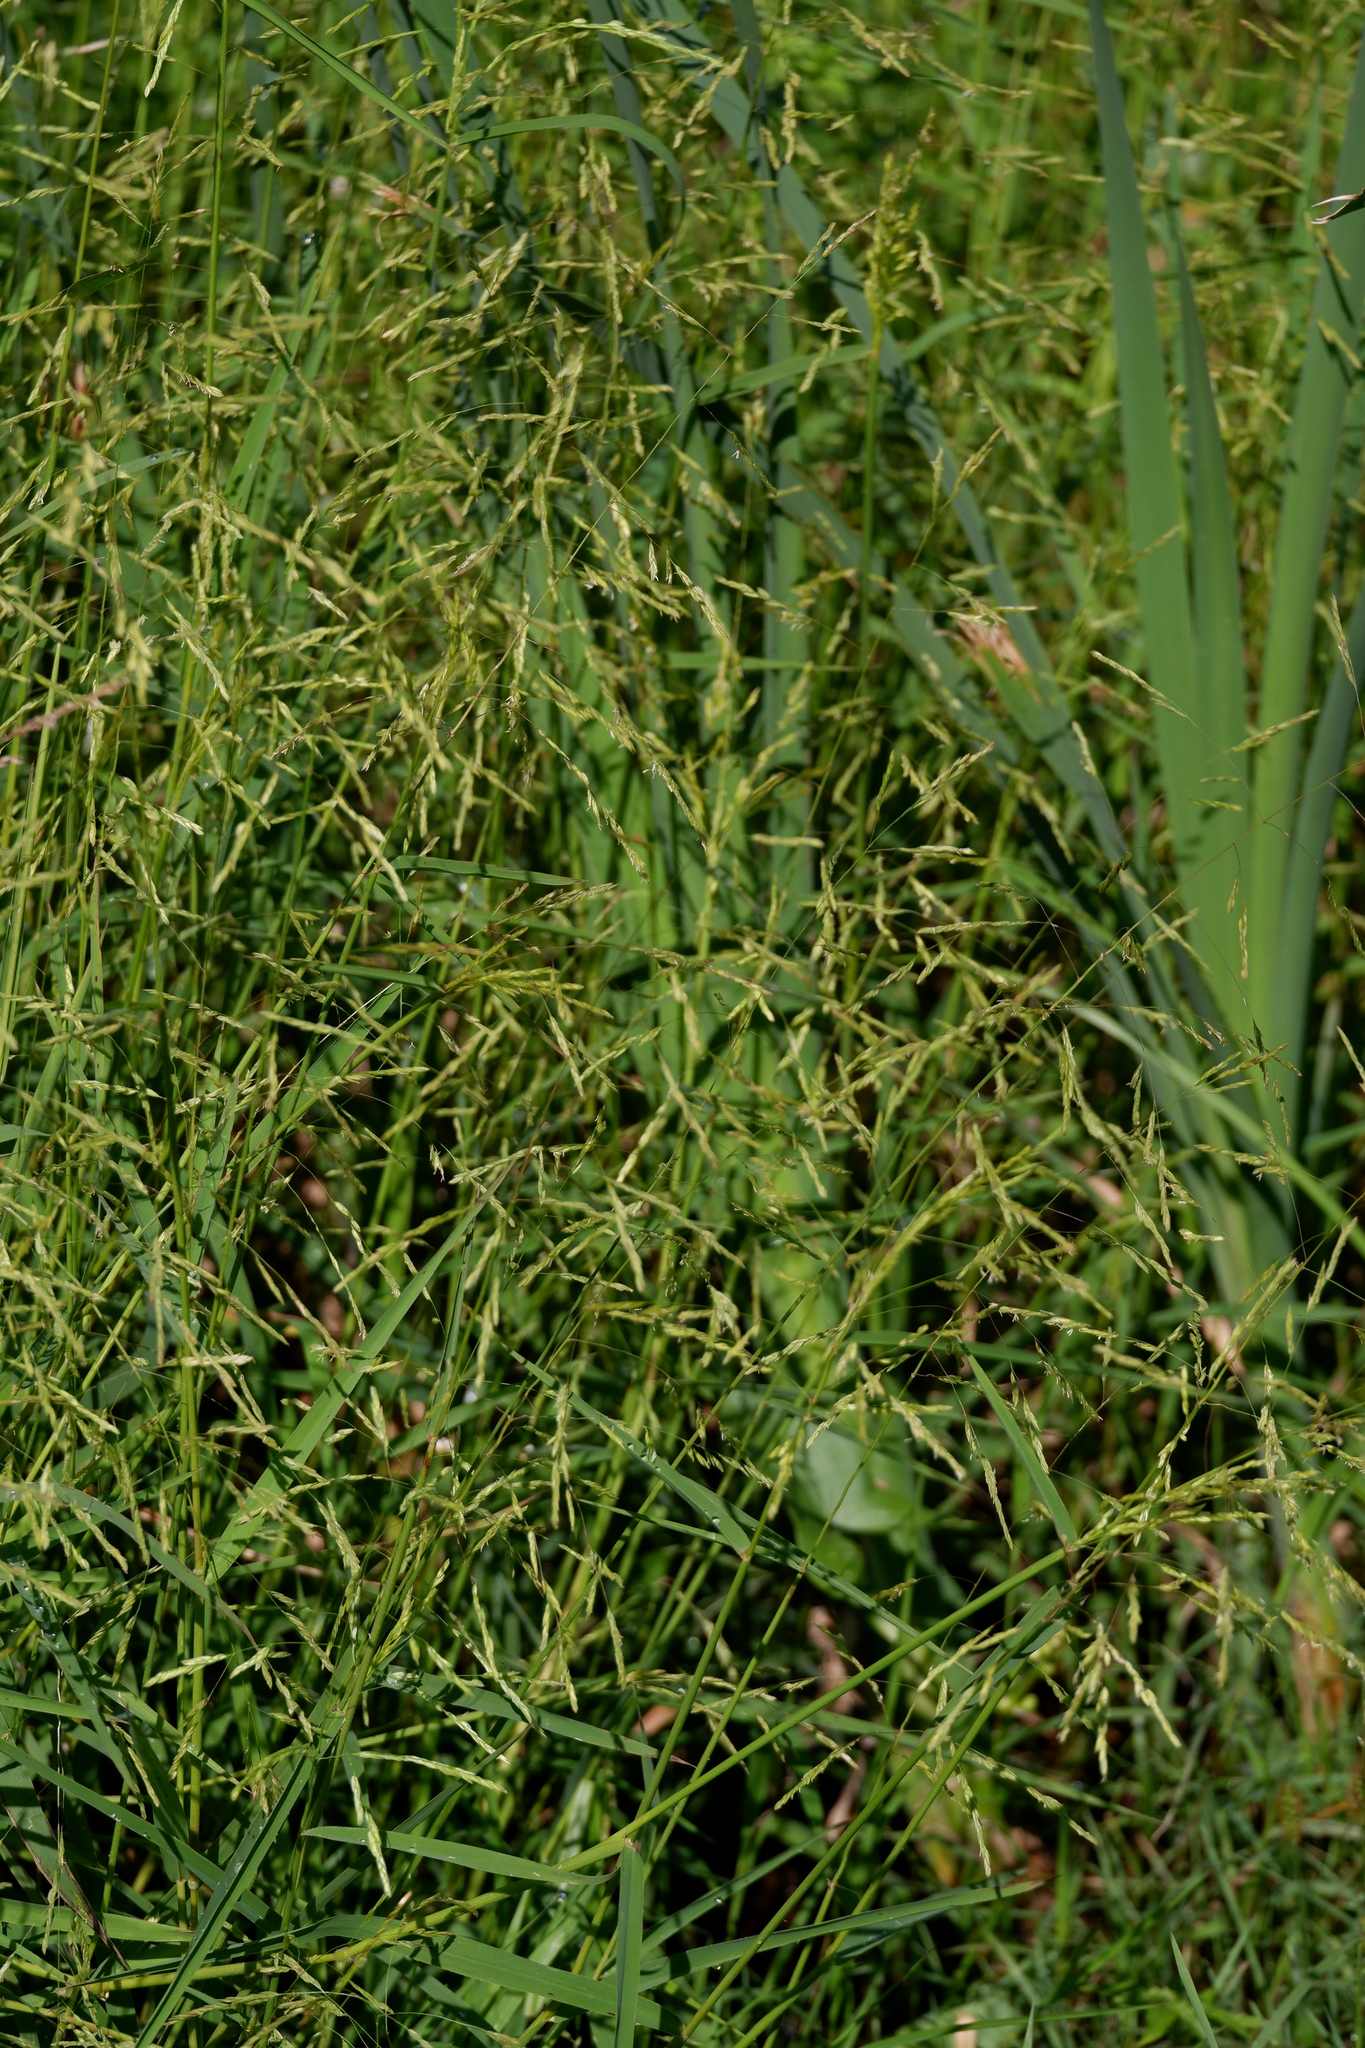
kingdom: Plantae
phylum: Tracheophyta
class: Liliopsida
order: Poales
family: Poaceae
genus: Leersia
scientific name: Leersia oryzoides
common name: Cut-grass
